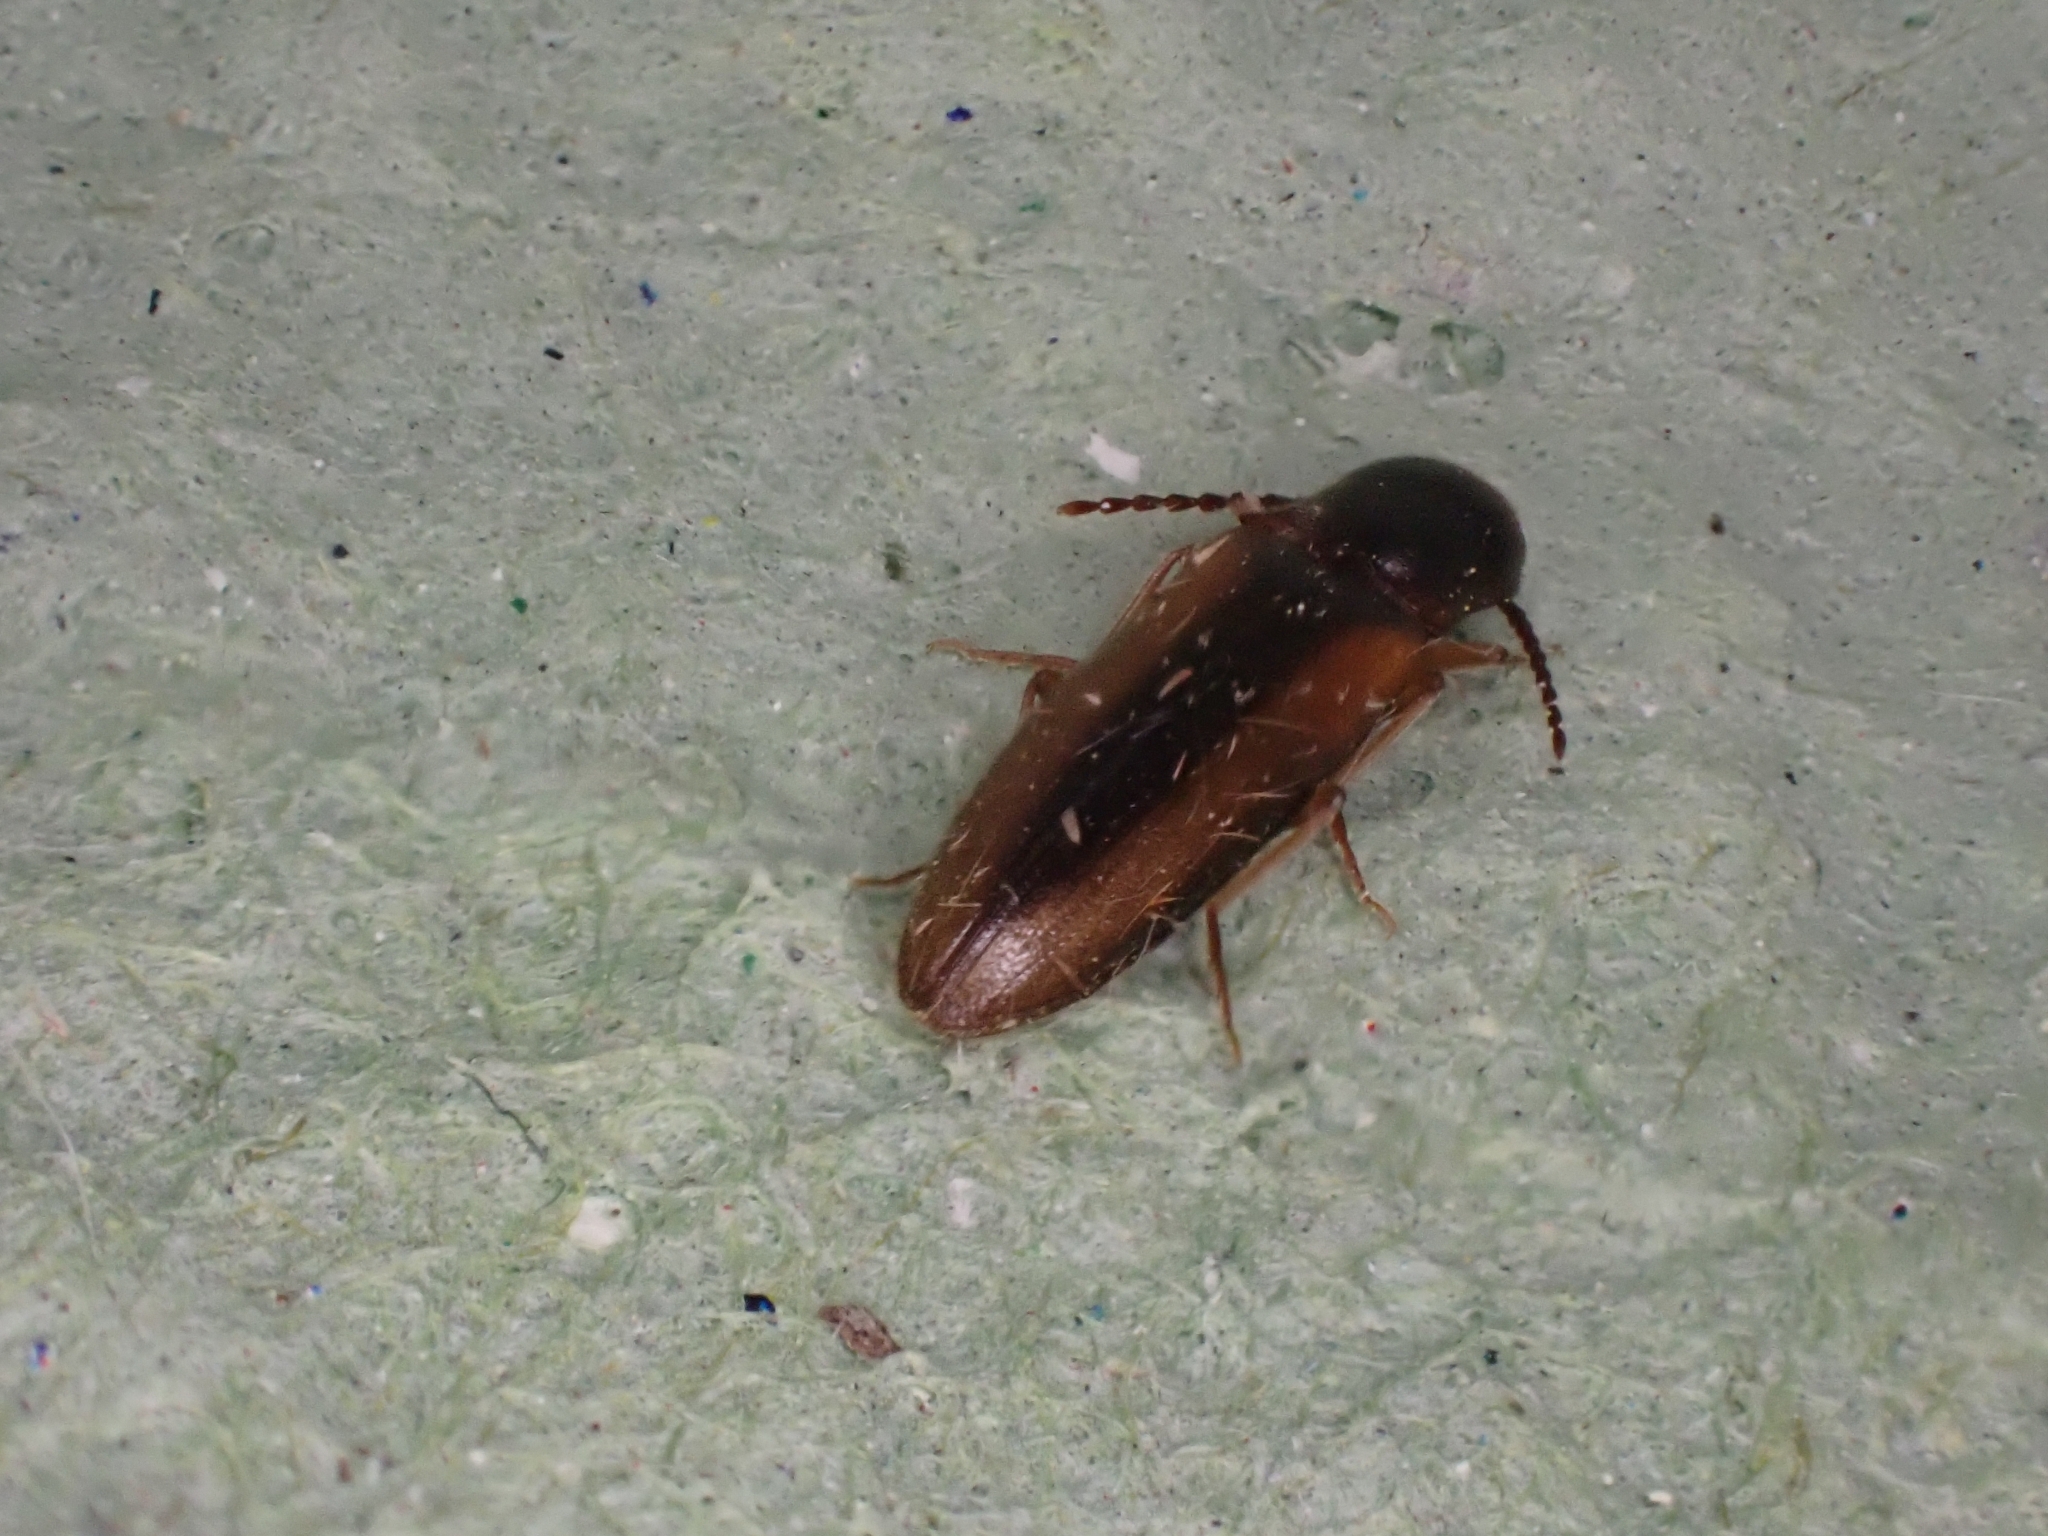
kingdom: Animalia
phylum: Arthropoda
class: Insecta
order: Coleoptera
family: Elateridae
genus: Dalopius
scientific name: Dalopius marginatus
